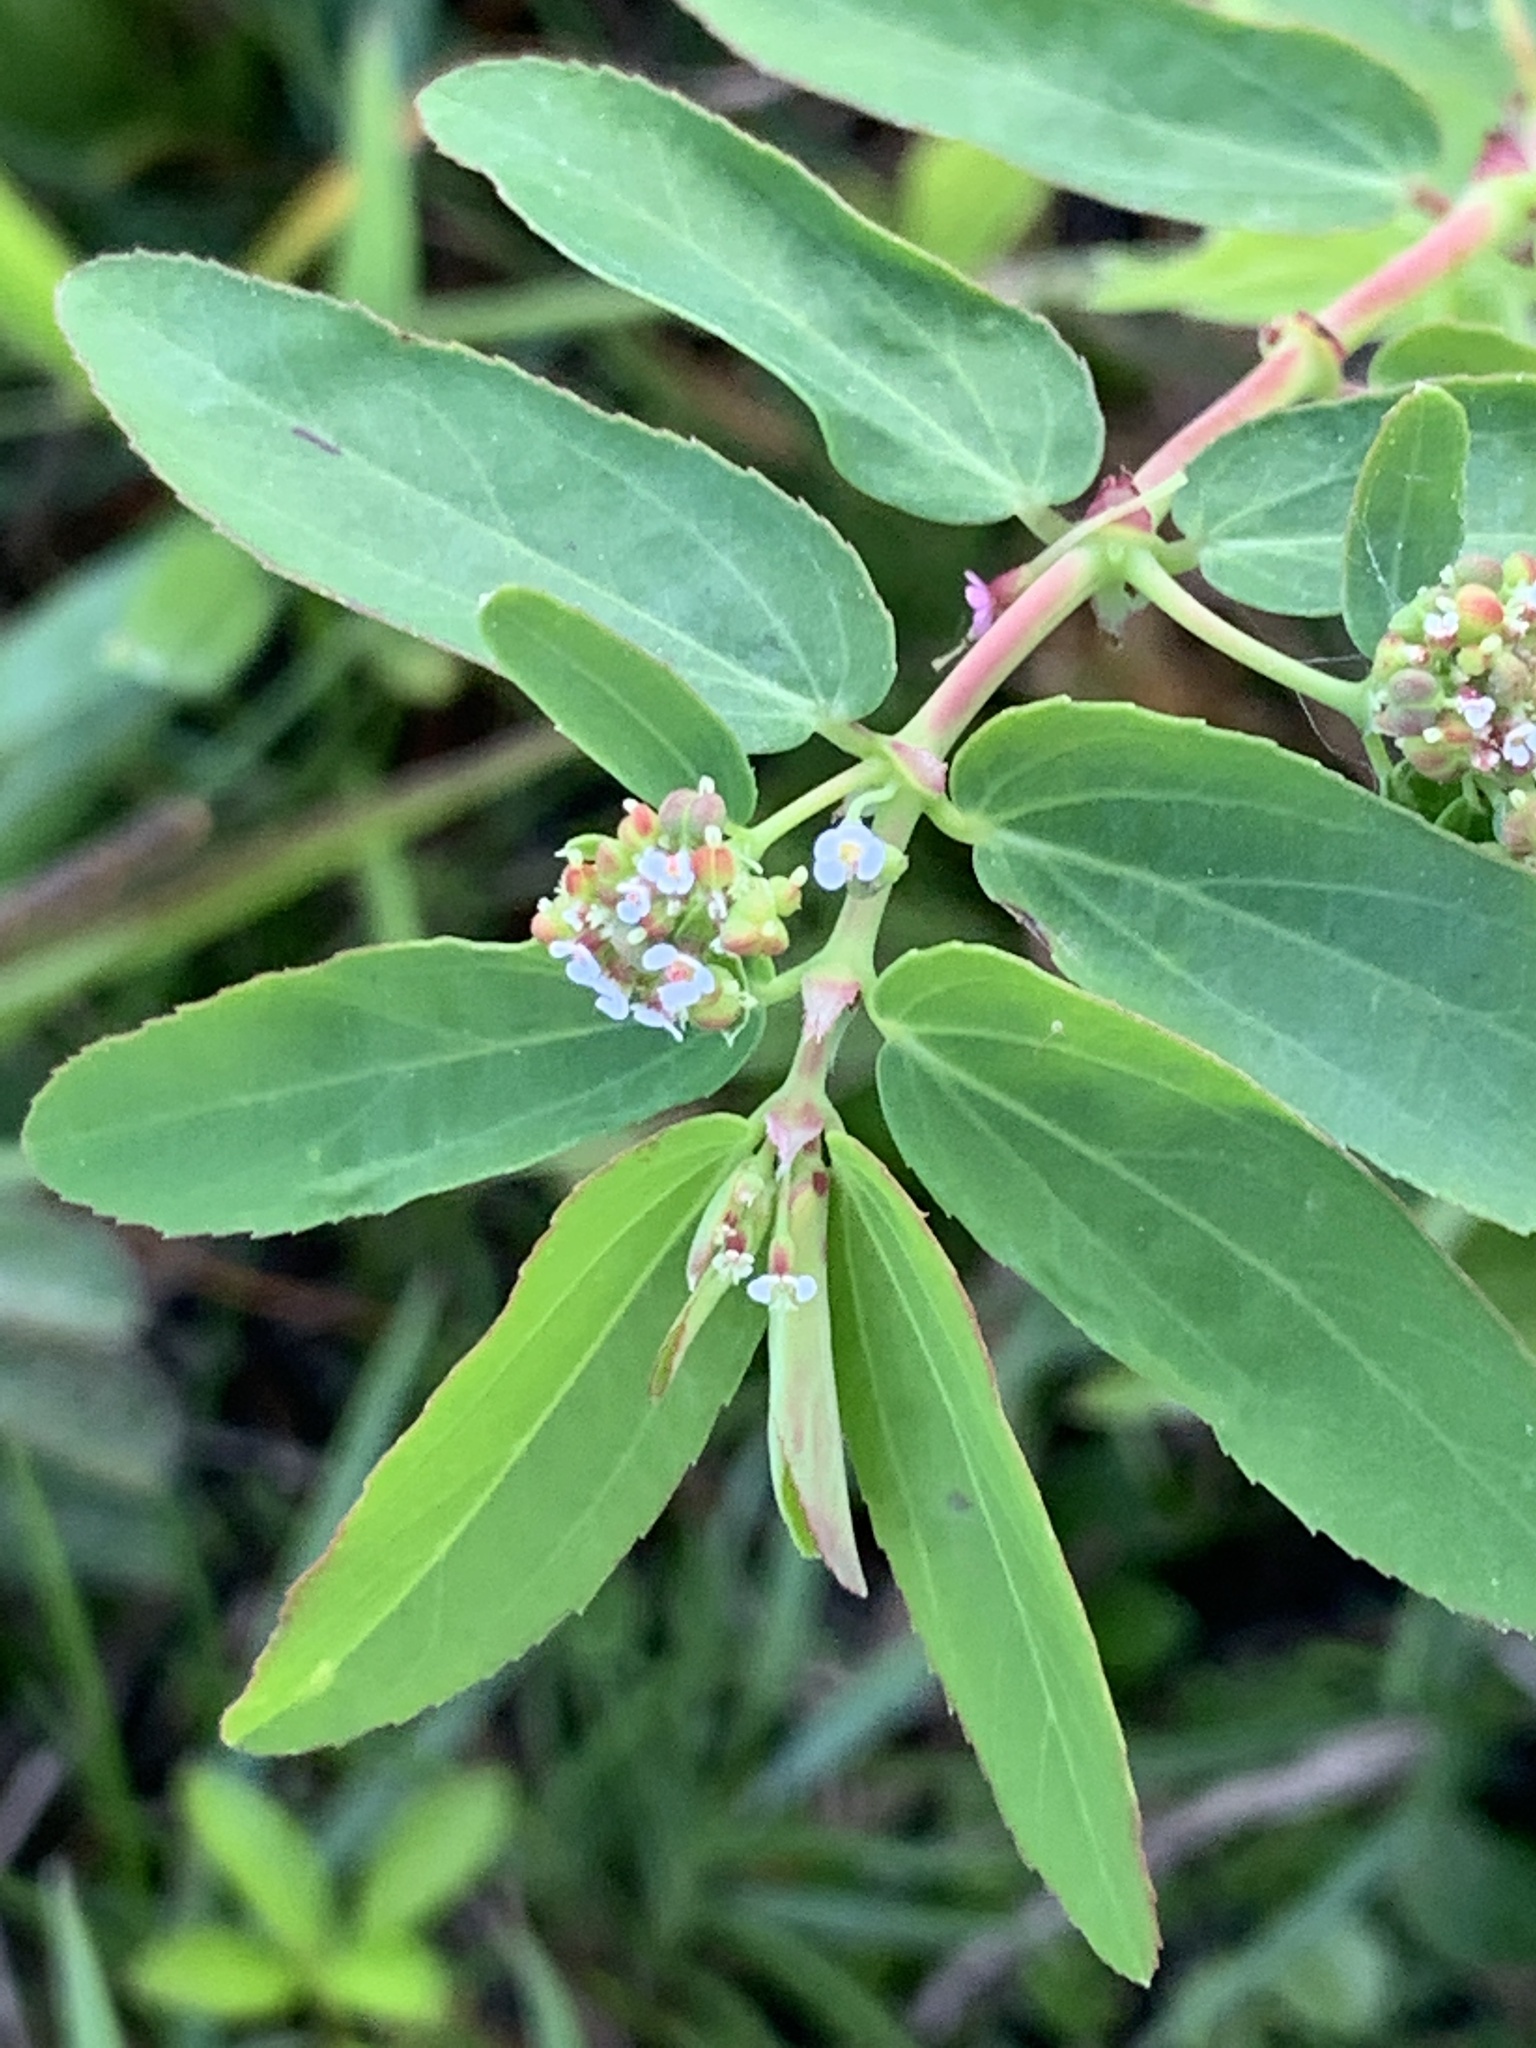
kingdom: Plantae
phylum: Tracheophyta
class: Magnoliopsida
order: Malpighiales
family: Euphorbiaceae
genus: Euphorbia
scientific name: Euphorbia hypericifolia
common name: Graceful sandmat
